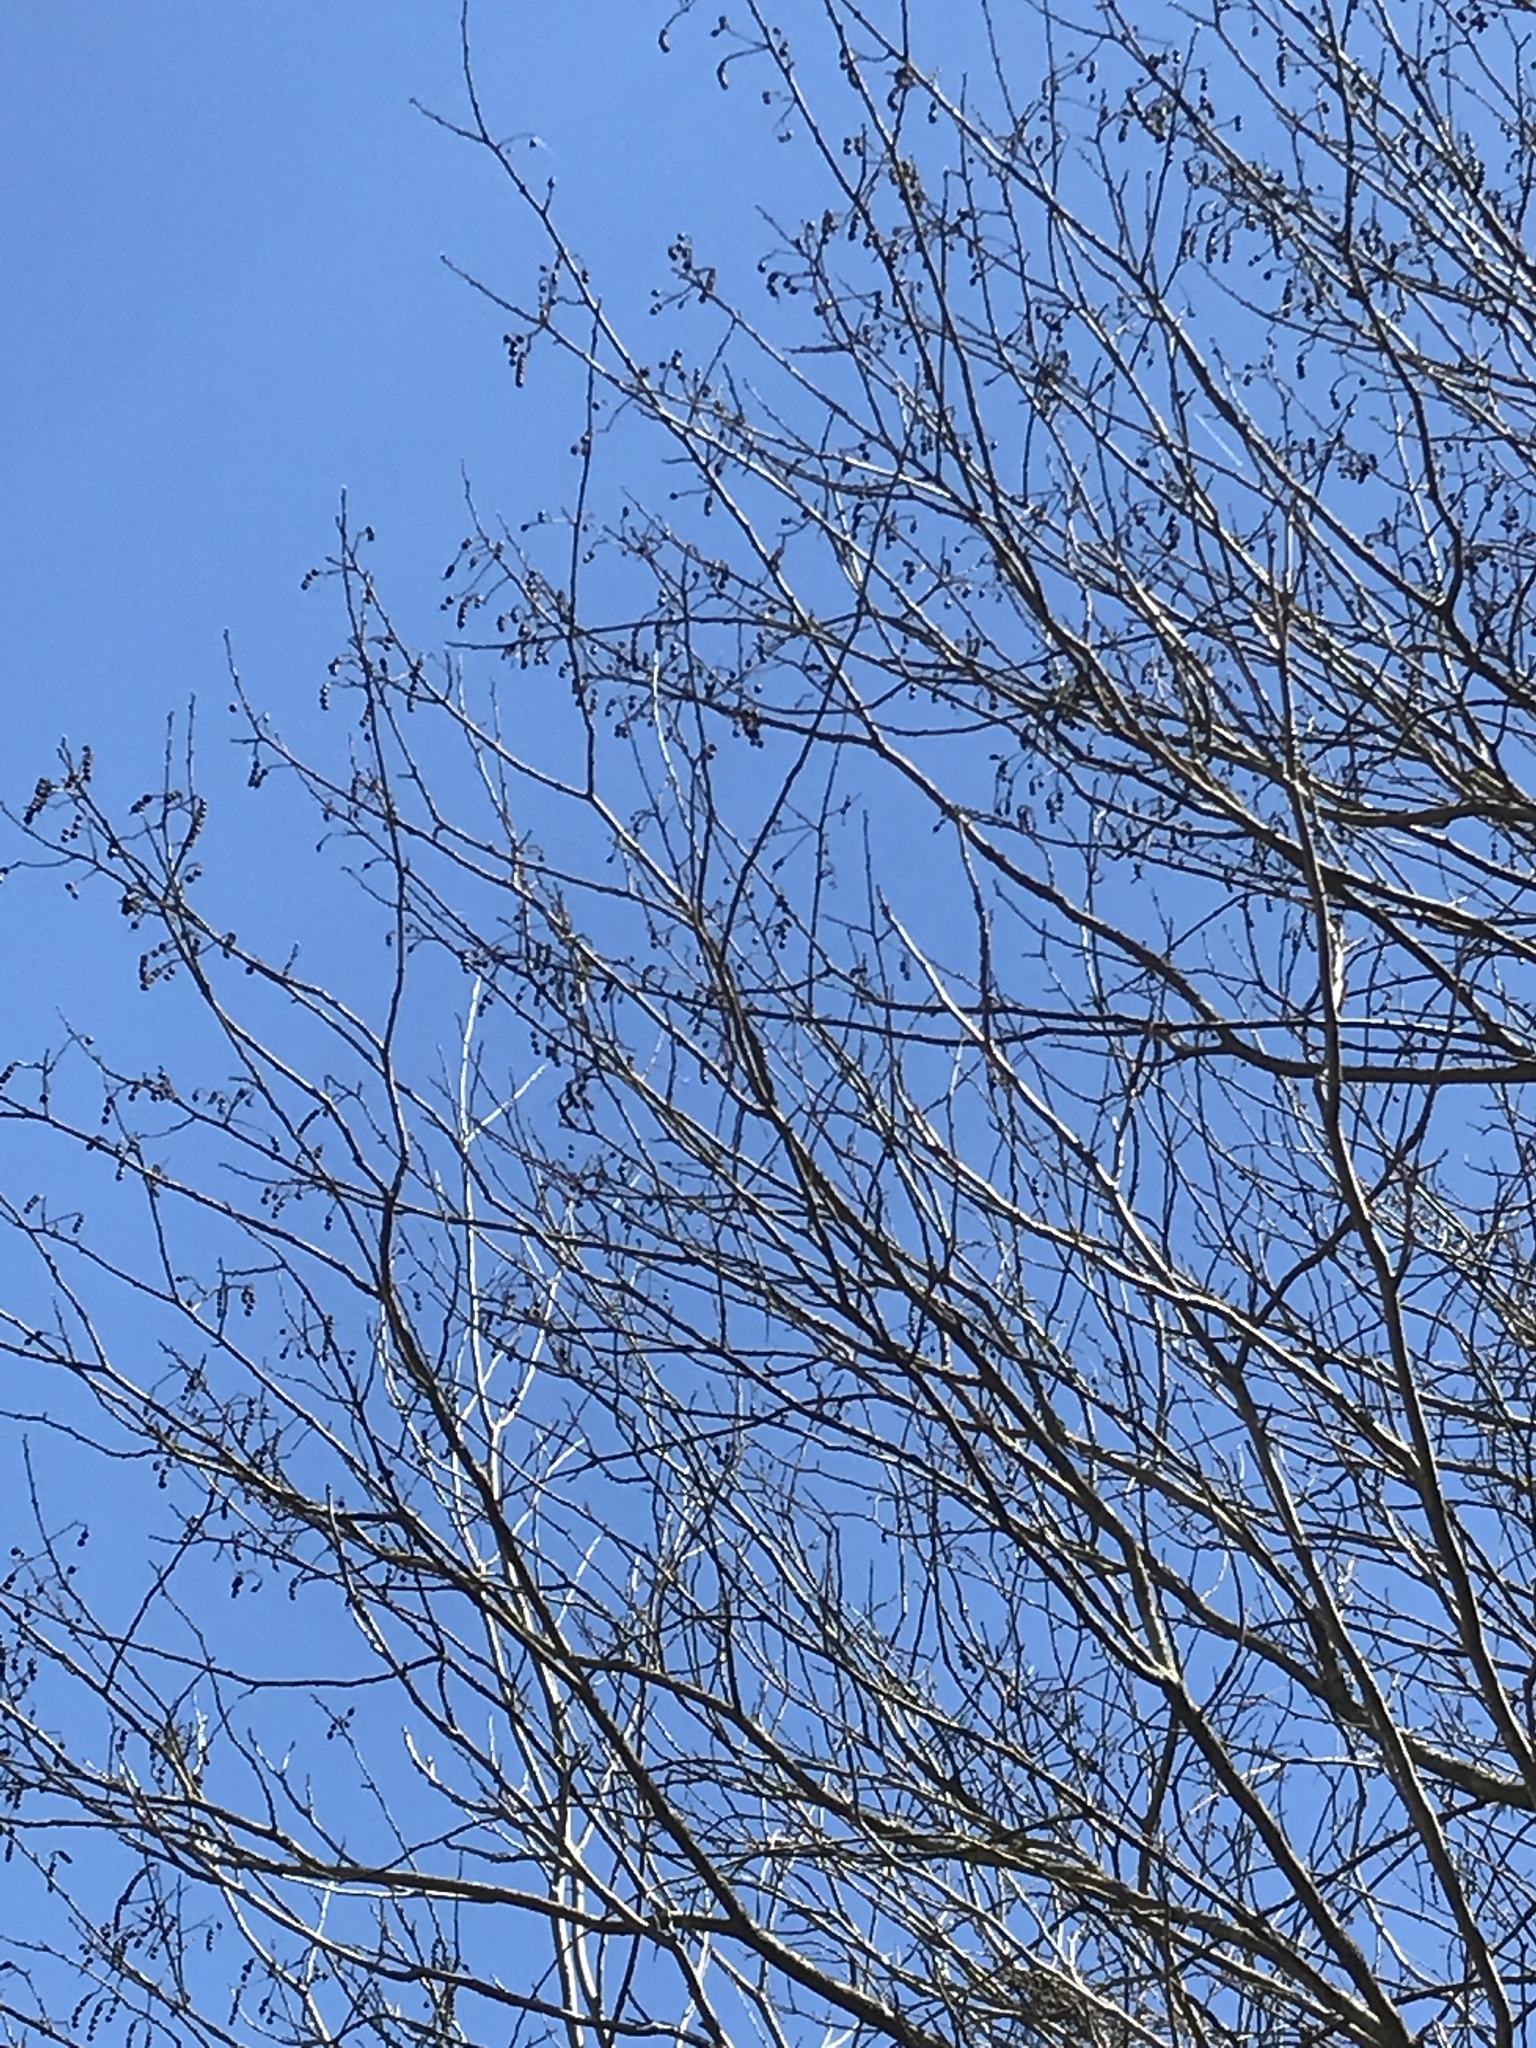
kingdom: Plantae
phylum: Tracheophyta
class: Magnoliopsida
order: Fagales
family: Fagaceae
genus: Quercus
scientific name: Quercus buckleyi
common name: Buckley oak
